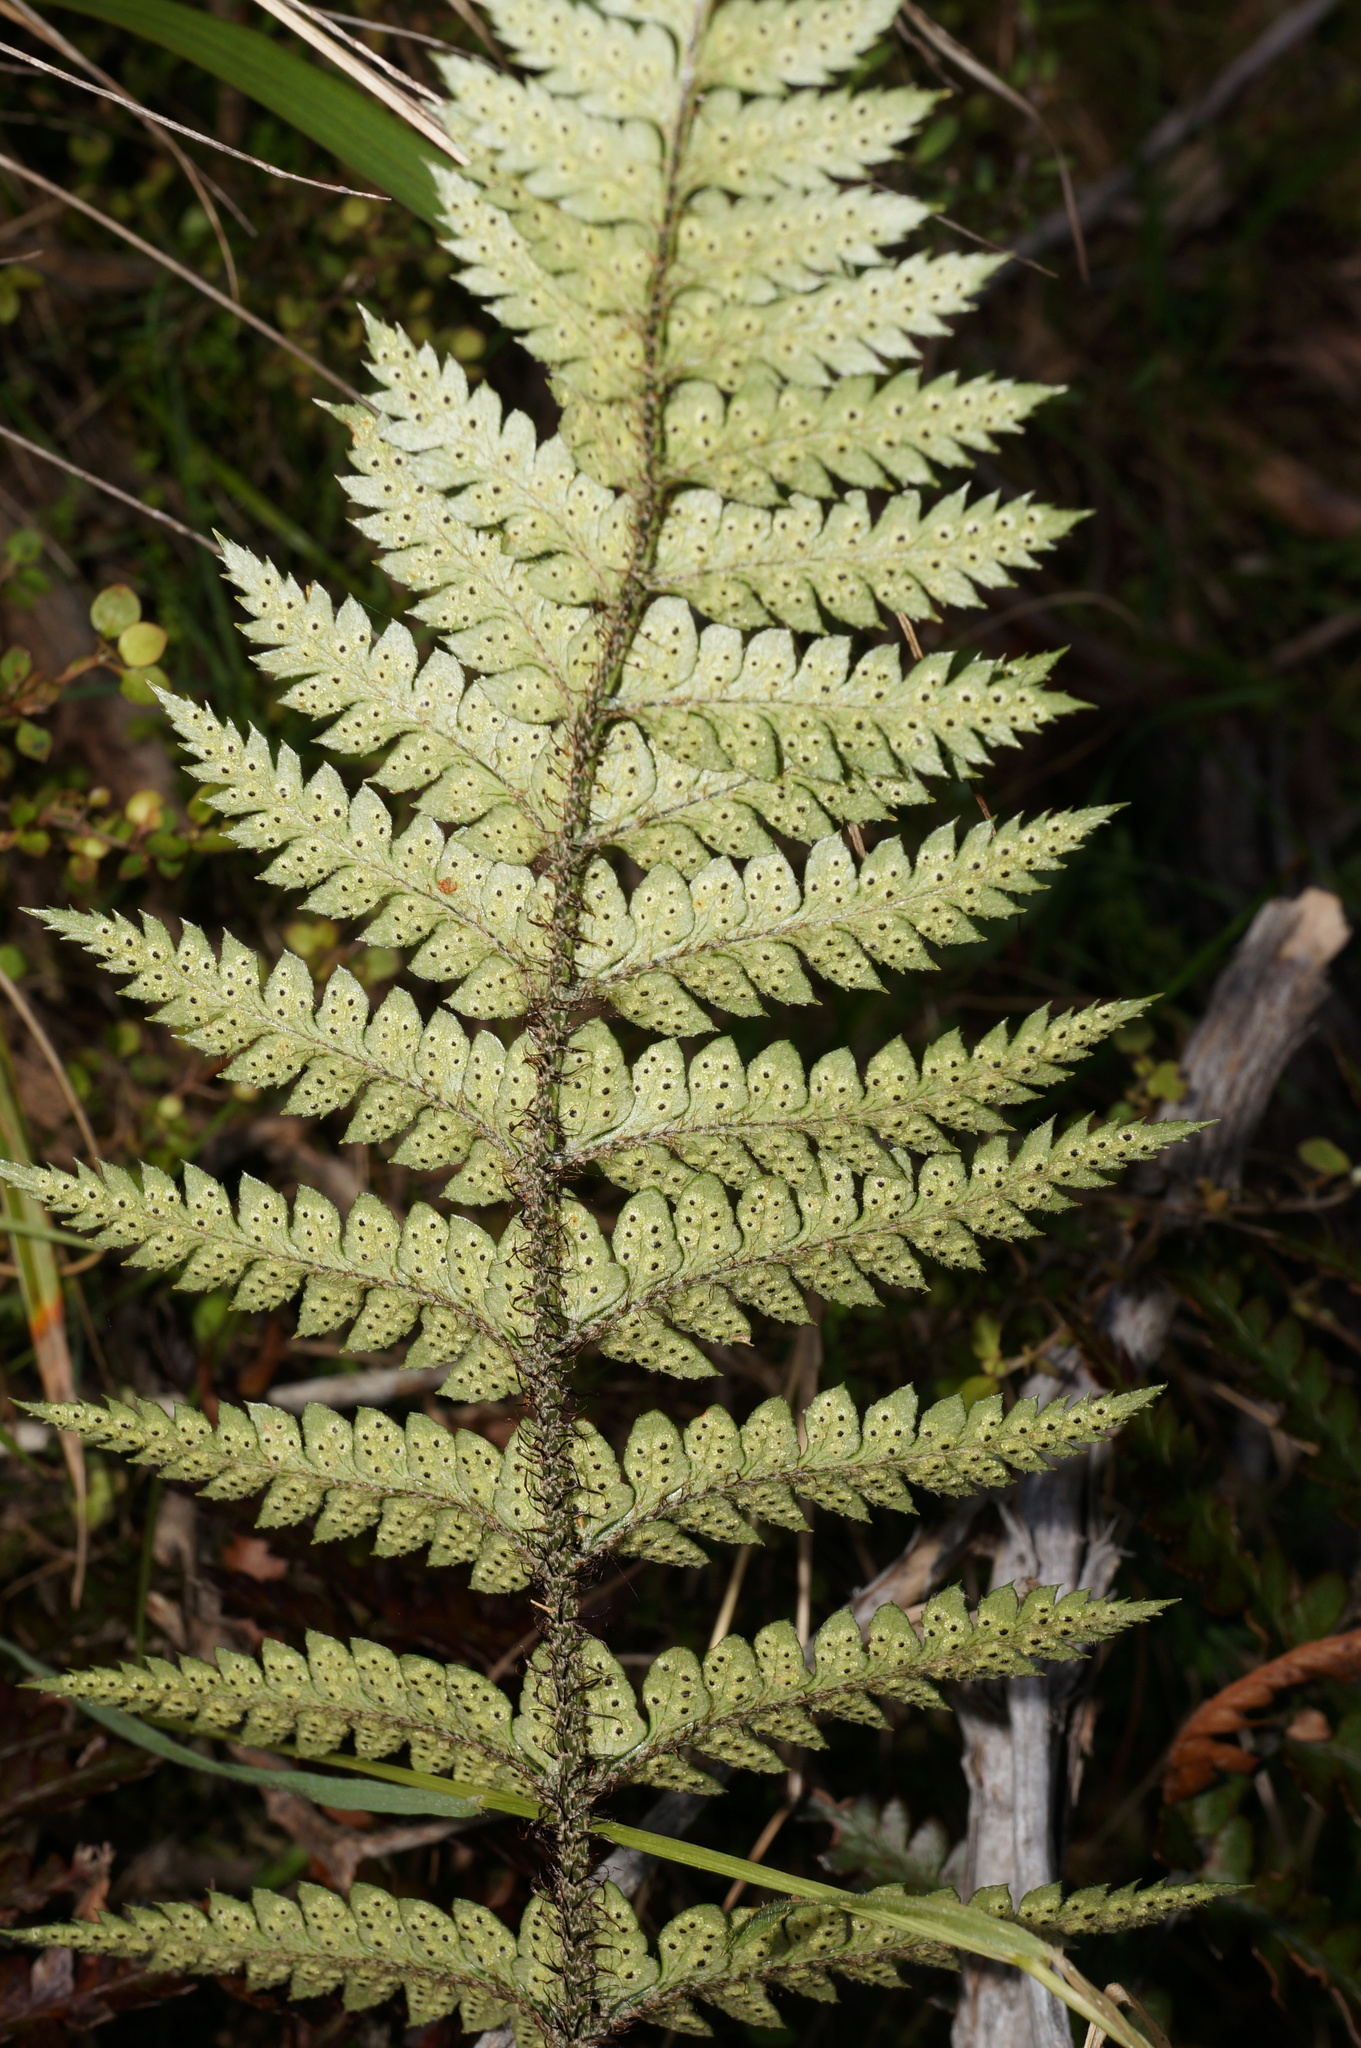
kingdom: Plantae
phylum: Tracheophyta
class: Polypodiopsida
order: Polypodiales
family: Dryopteridaceae
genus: Polystichum
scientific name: Polystichum neozelandicum
